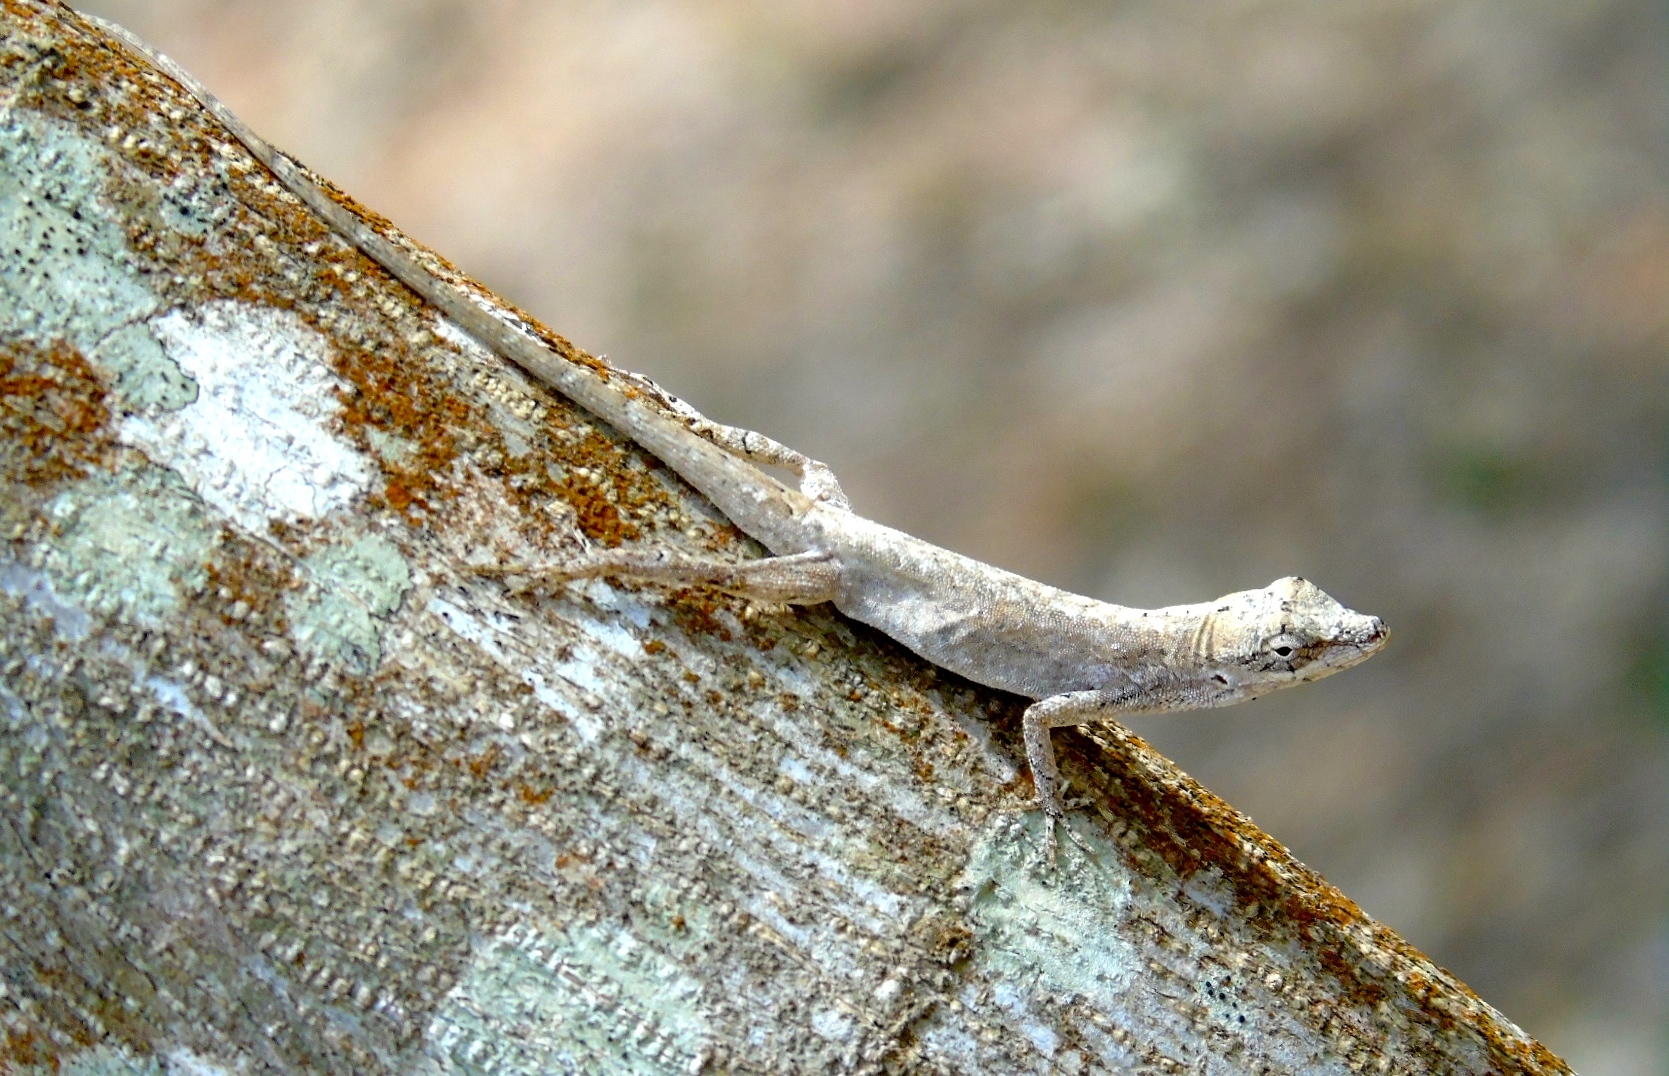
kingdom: Animalia
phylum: Chordata
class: Squamata
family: Dactyloidae
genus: Anolis
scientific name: Anolis nebulosus
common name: Clouded anole
